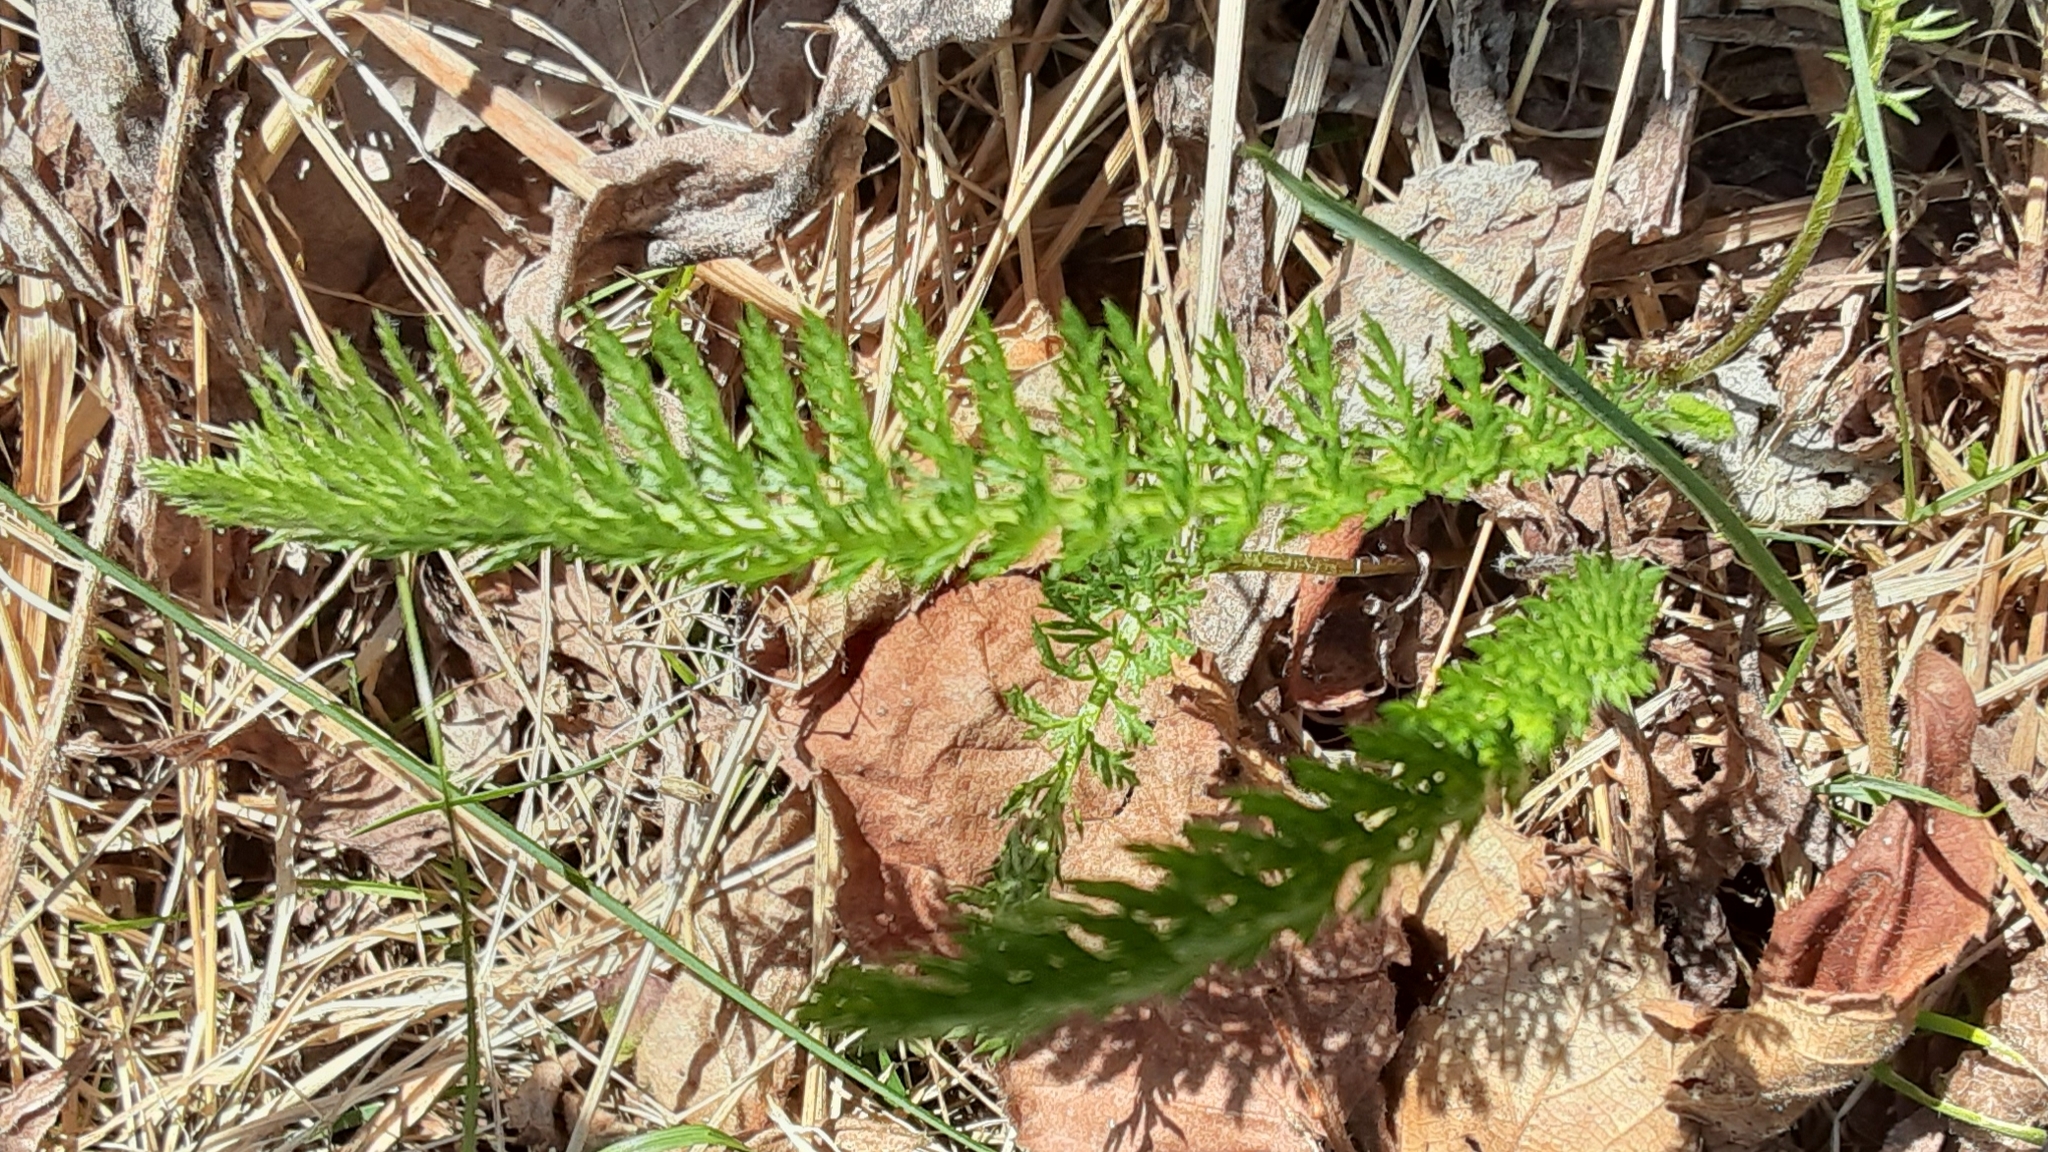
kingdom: Plantae
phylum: Tracheophyta
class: Magnoliopsida
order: Asterales
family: Asteraceae
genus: Achillea
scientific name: Achillea millefolium
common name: Yarrow
